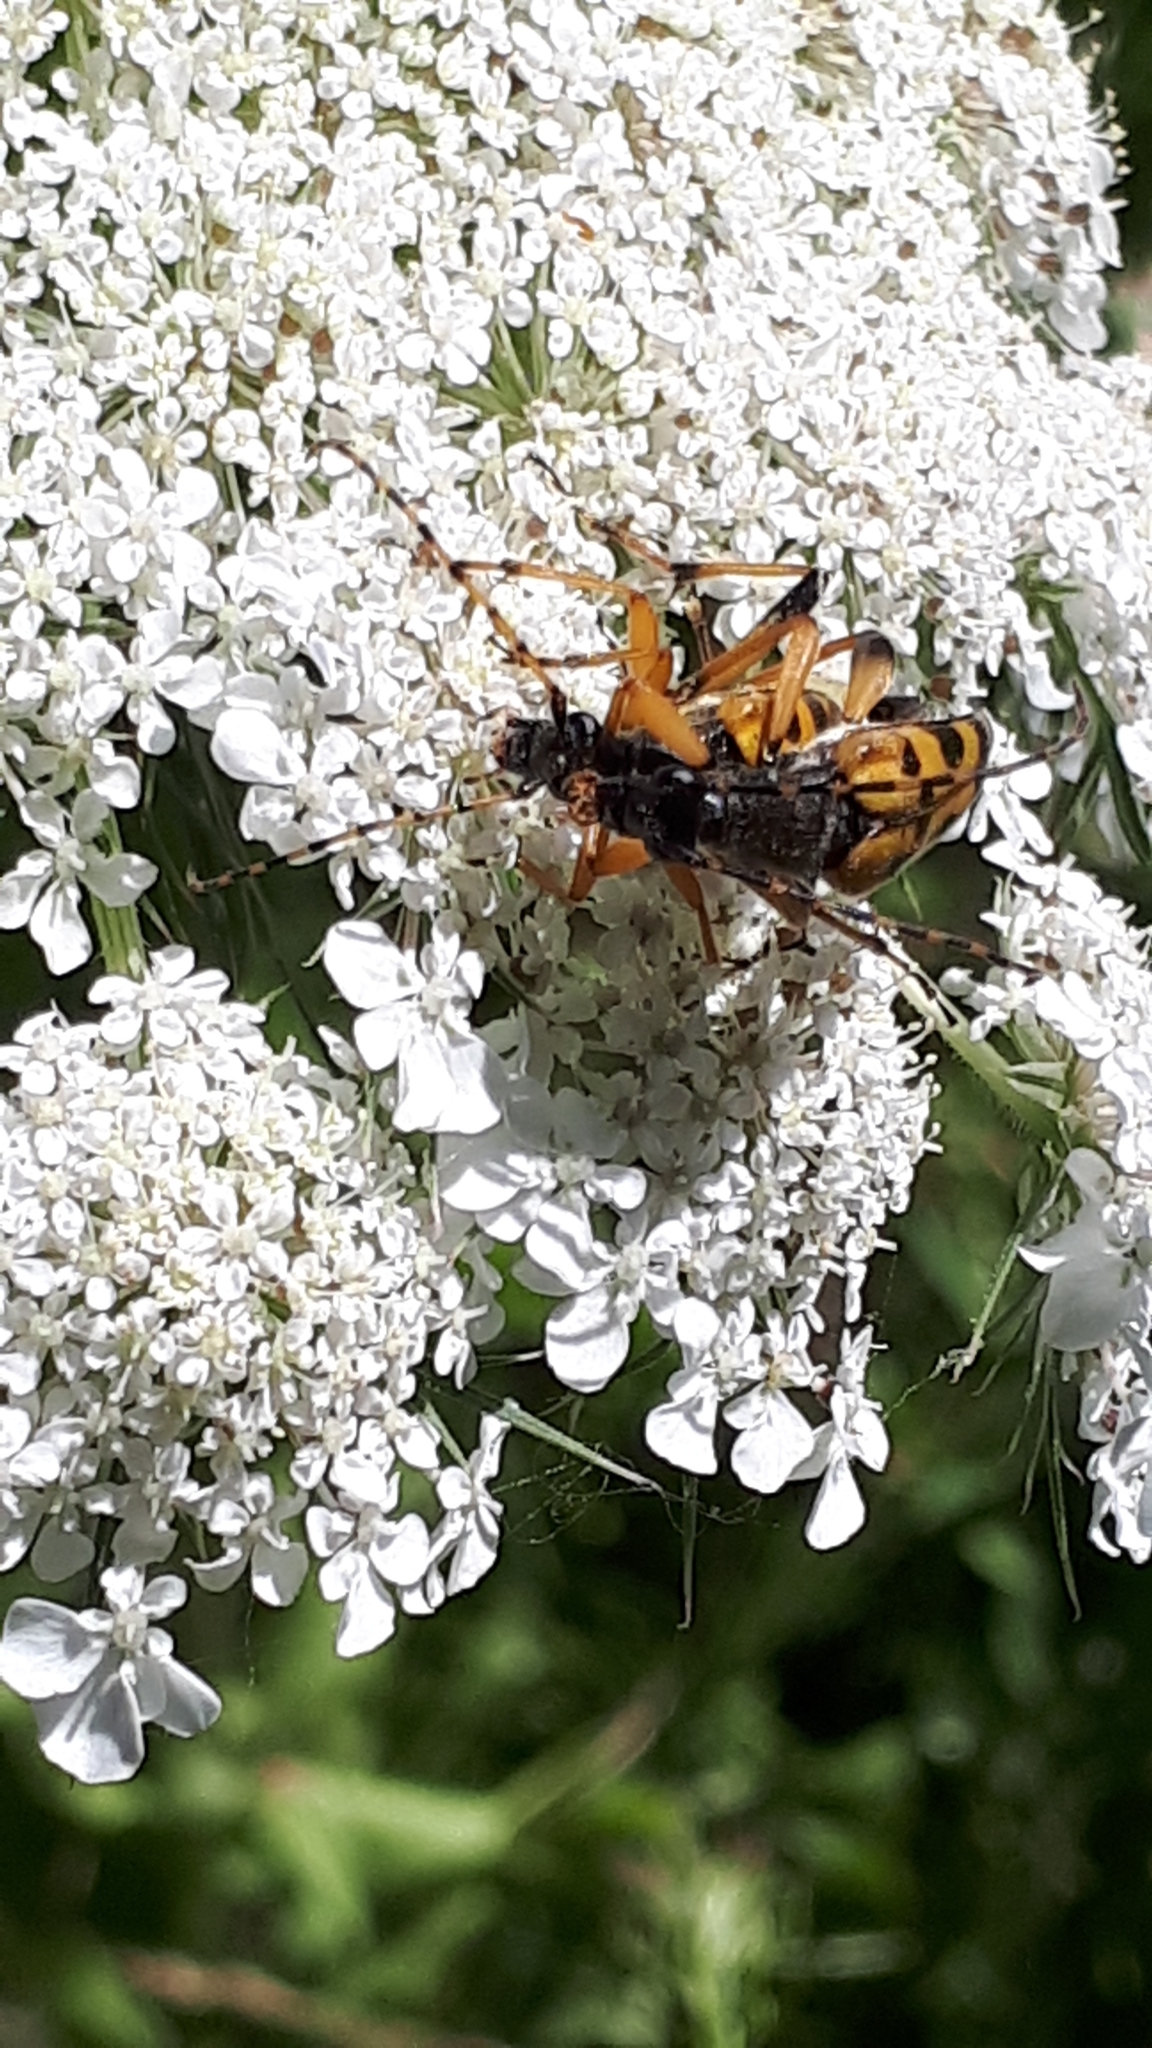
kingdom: Animalia
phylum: Arthropoda
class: Insecta
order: Coleoptera
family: Cerambycidae
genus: Rutpela
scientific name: Rutpela maculata
